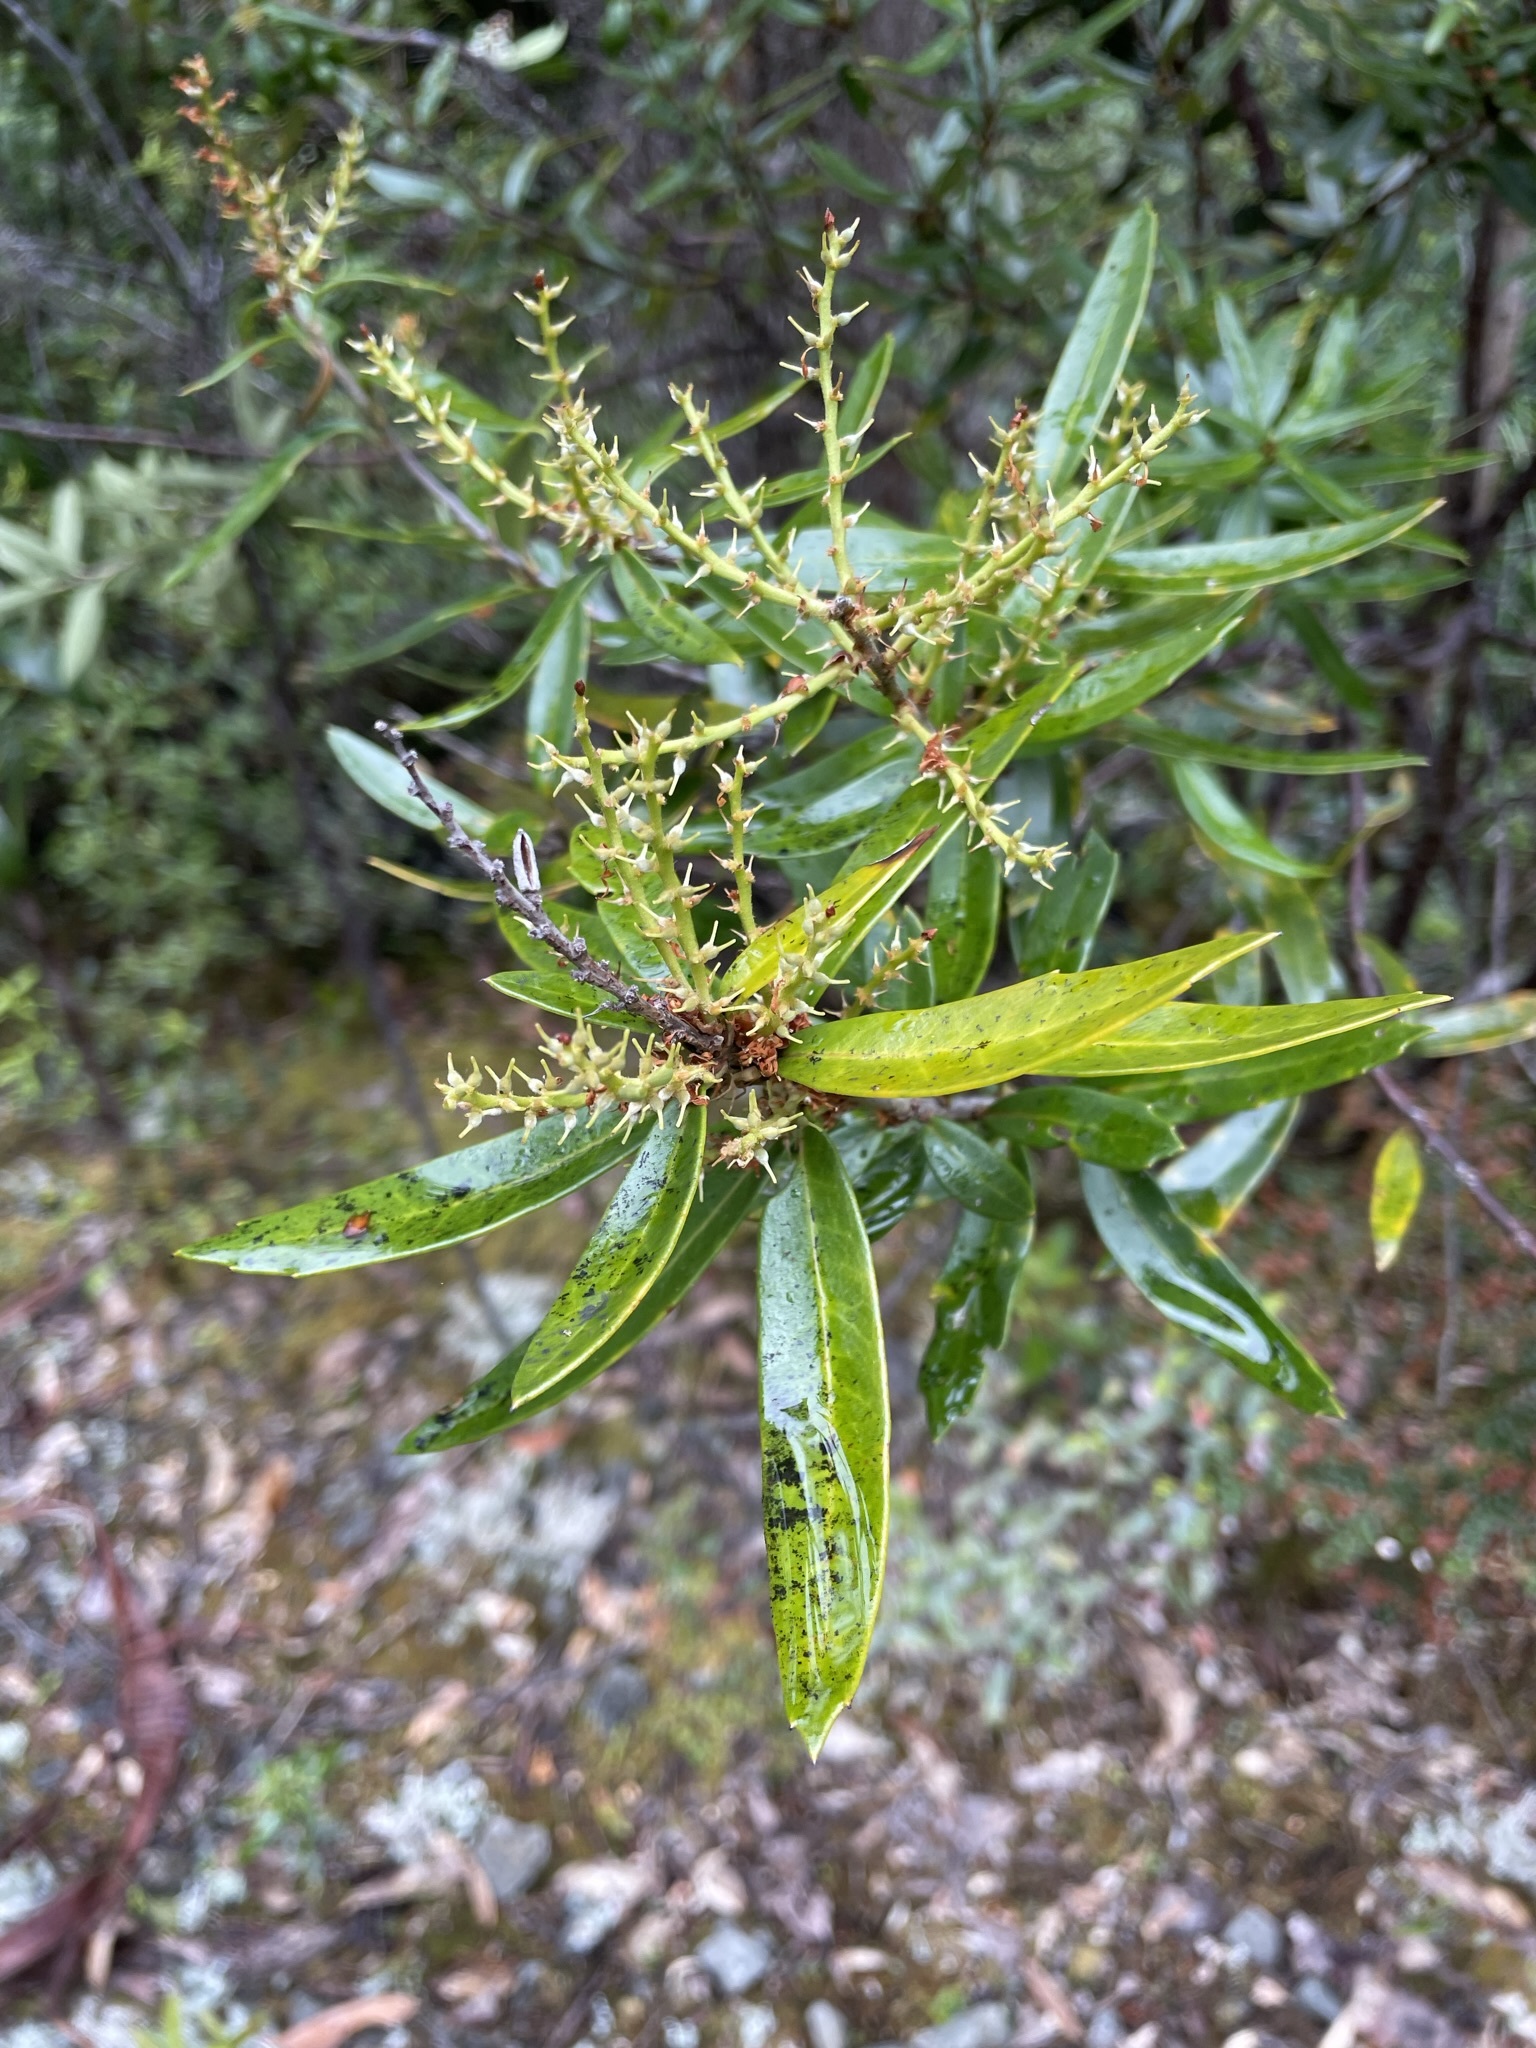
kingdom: Plantae
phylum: Tracheophyta
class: Magnoliopsida
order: Proteales
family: Proteaceae
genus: Orites
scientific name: Orites diversifolius
